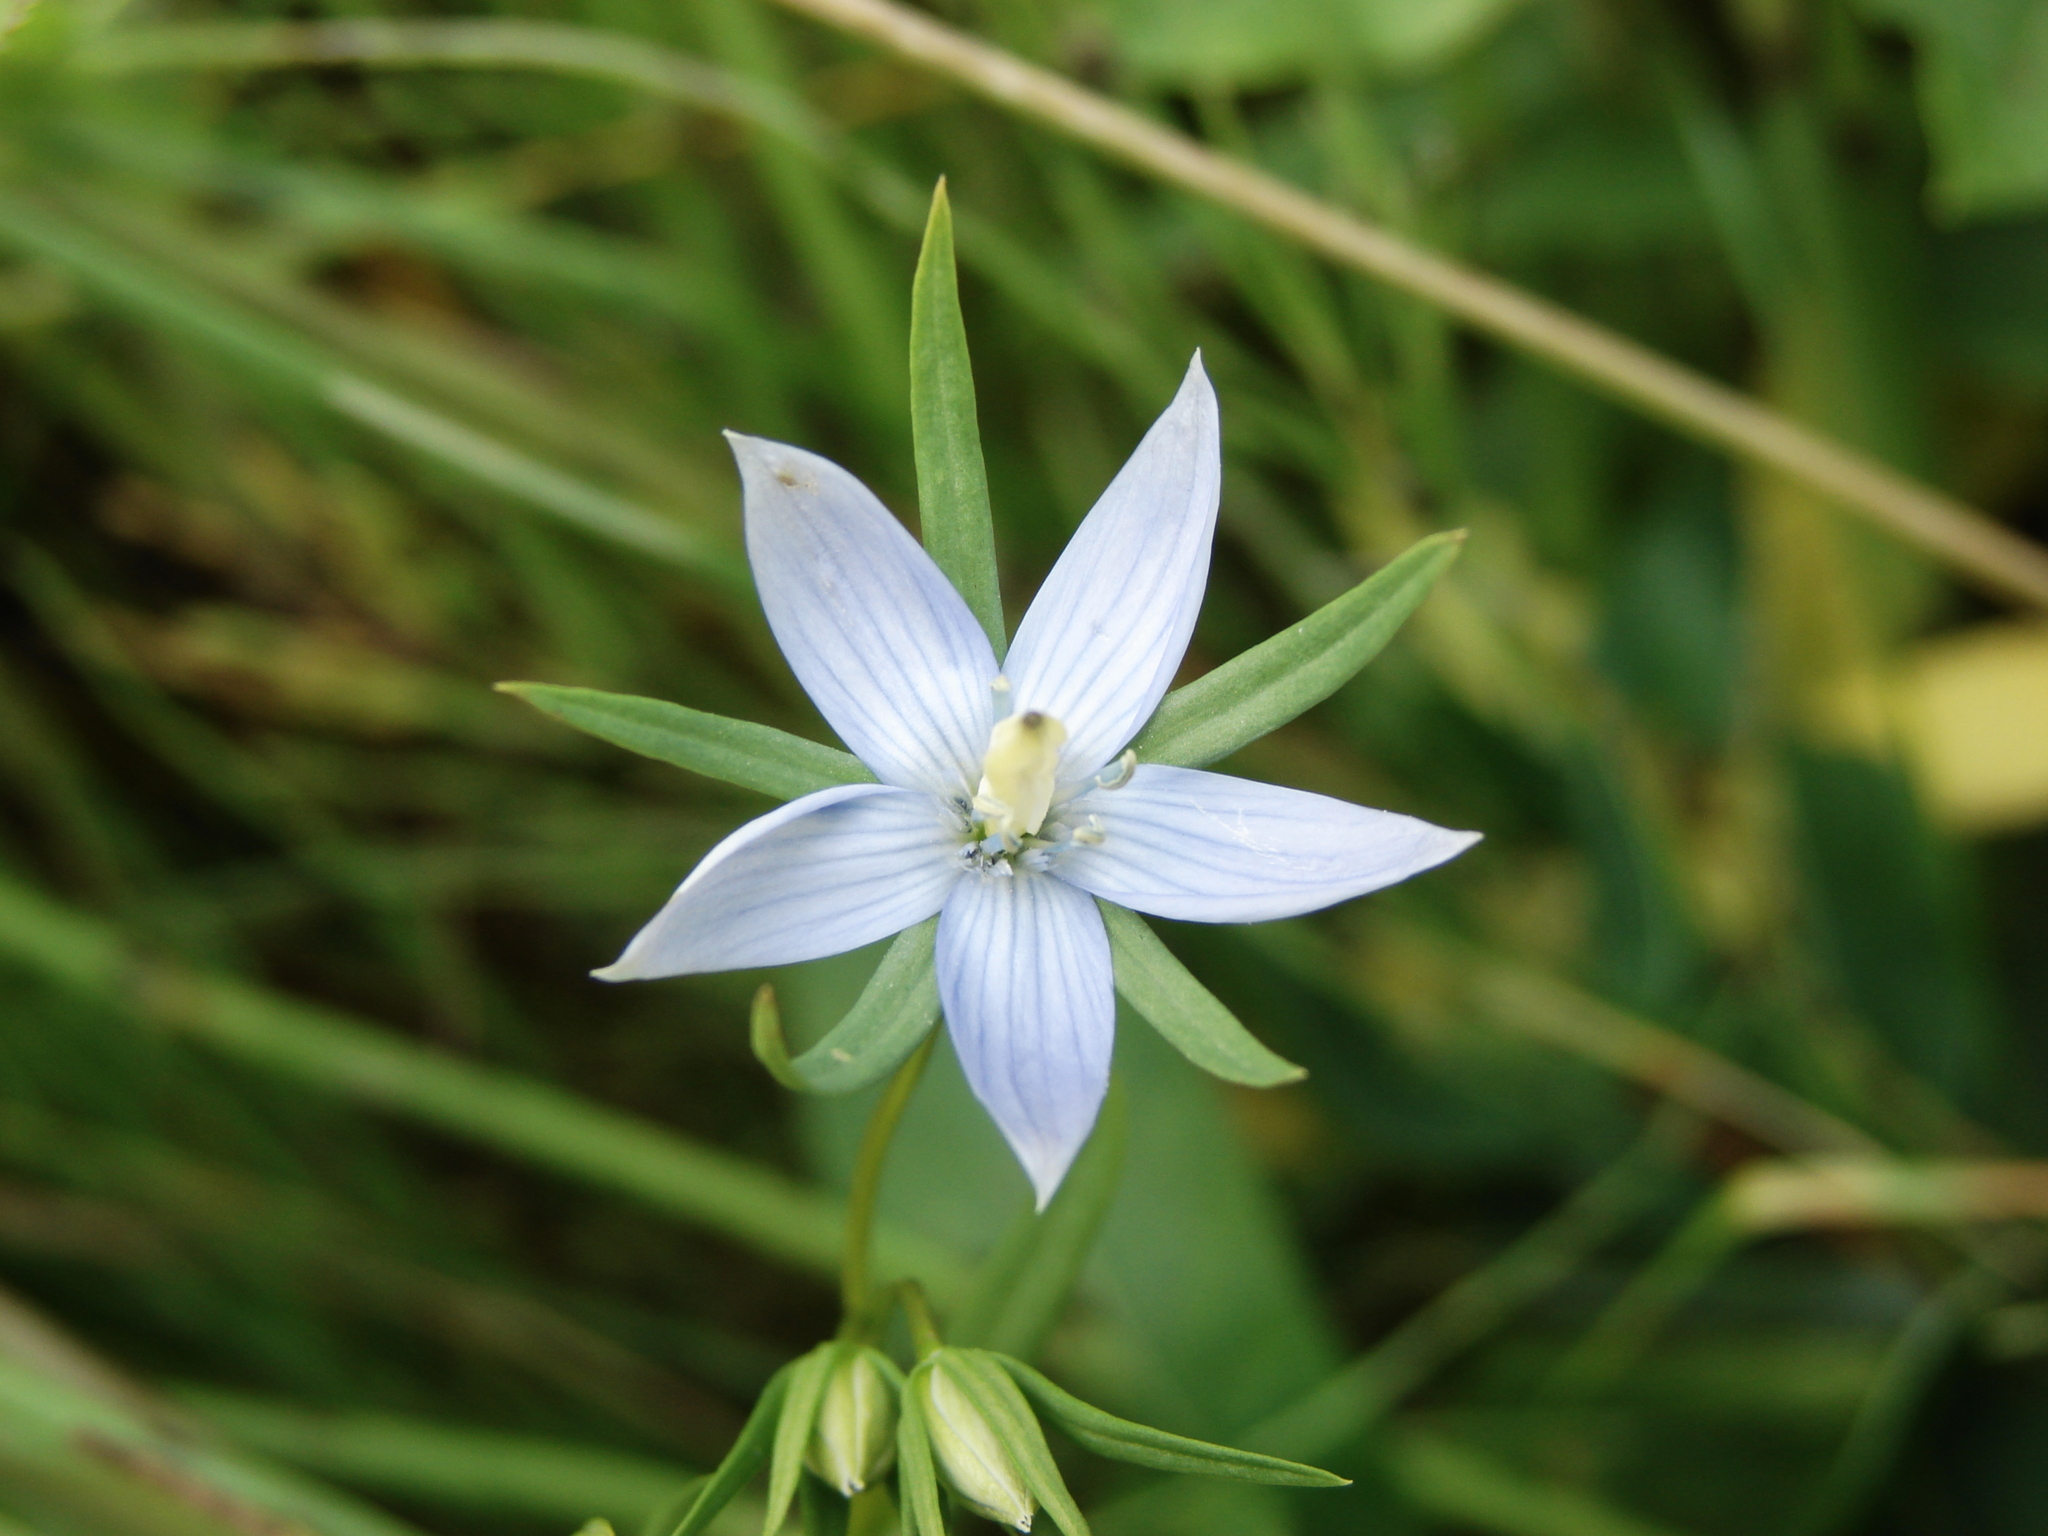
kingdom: Plantae
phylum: Tracheophyta
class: Magnoliopsida
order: Gentianales
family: Gentianaceae
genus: Lomatogonium
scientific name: Lomatogonium rotatum
